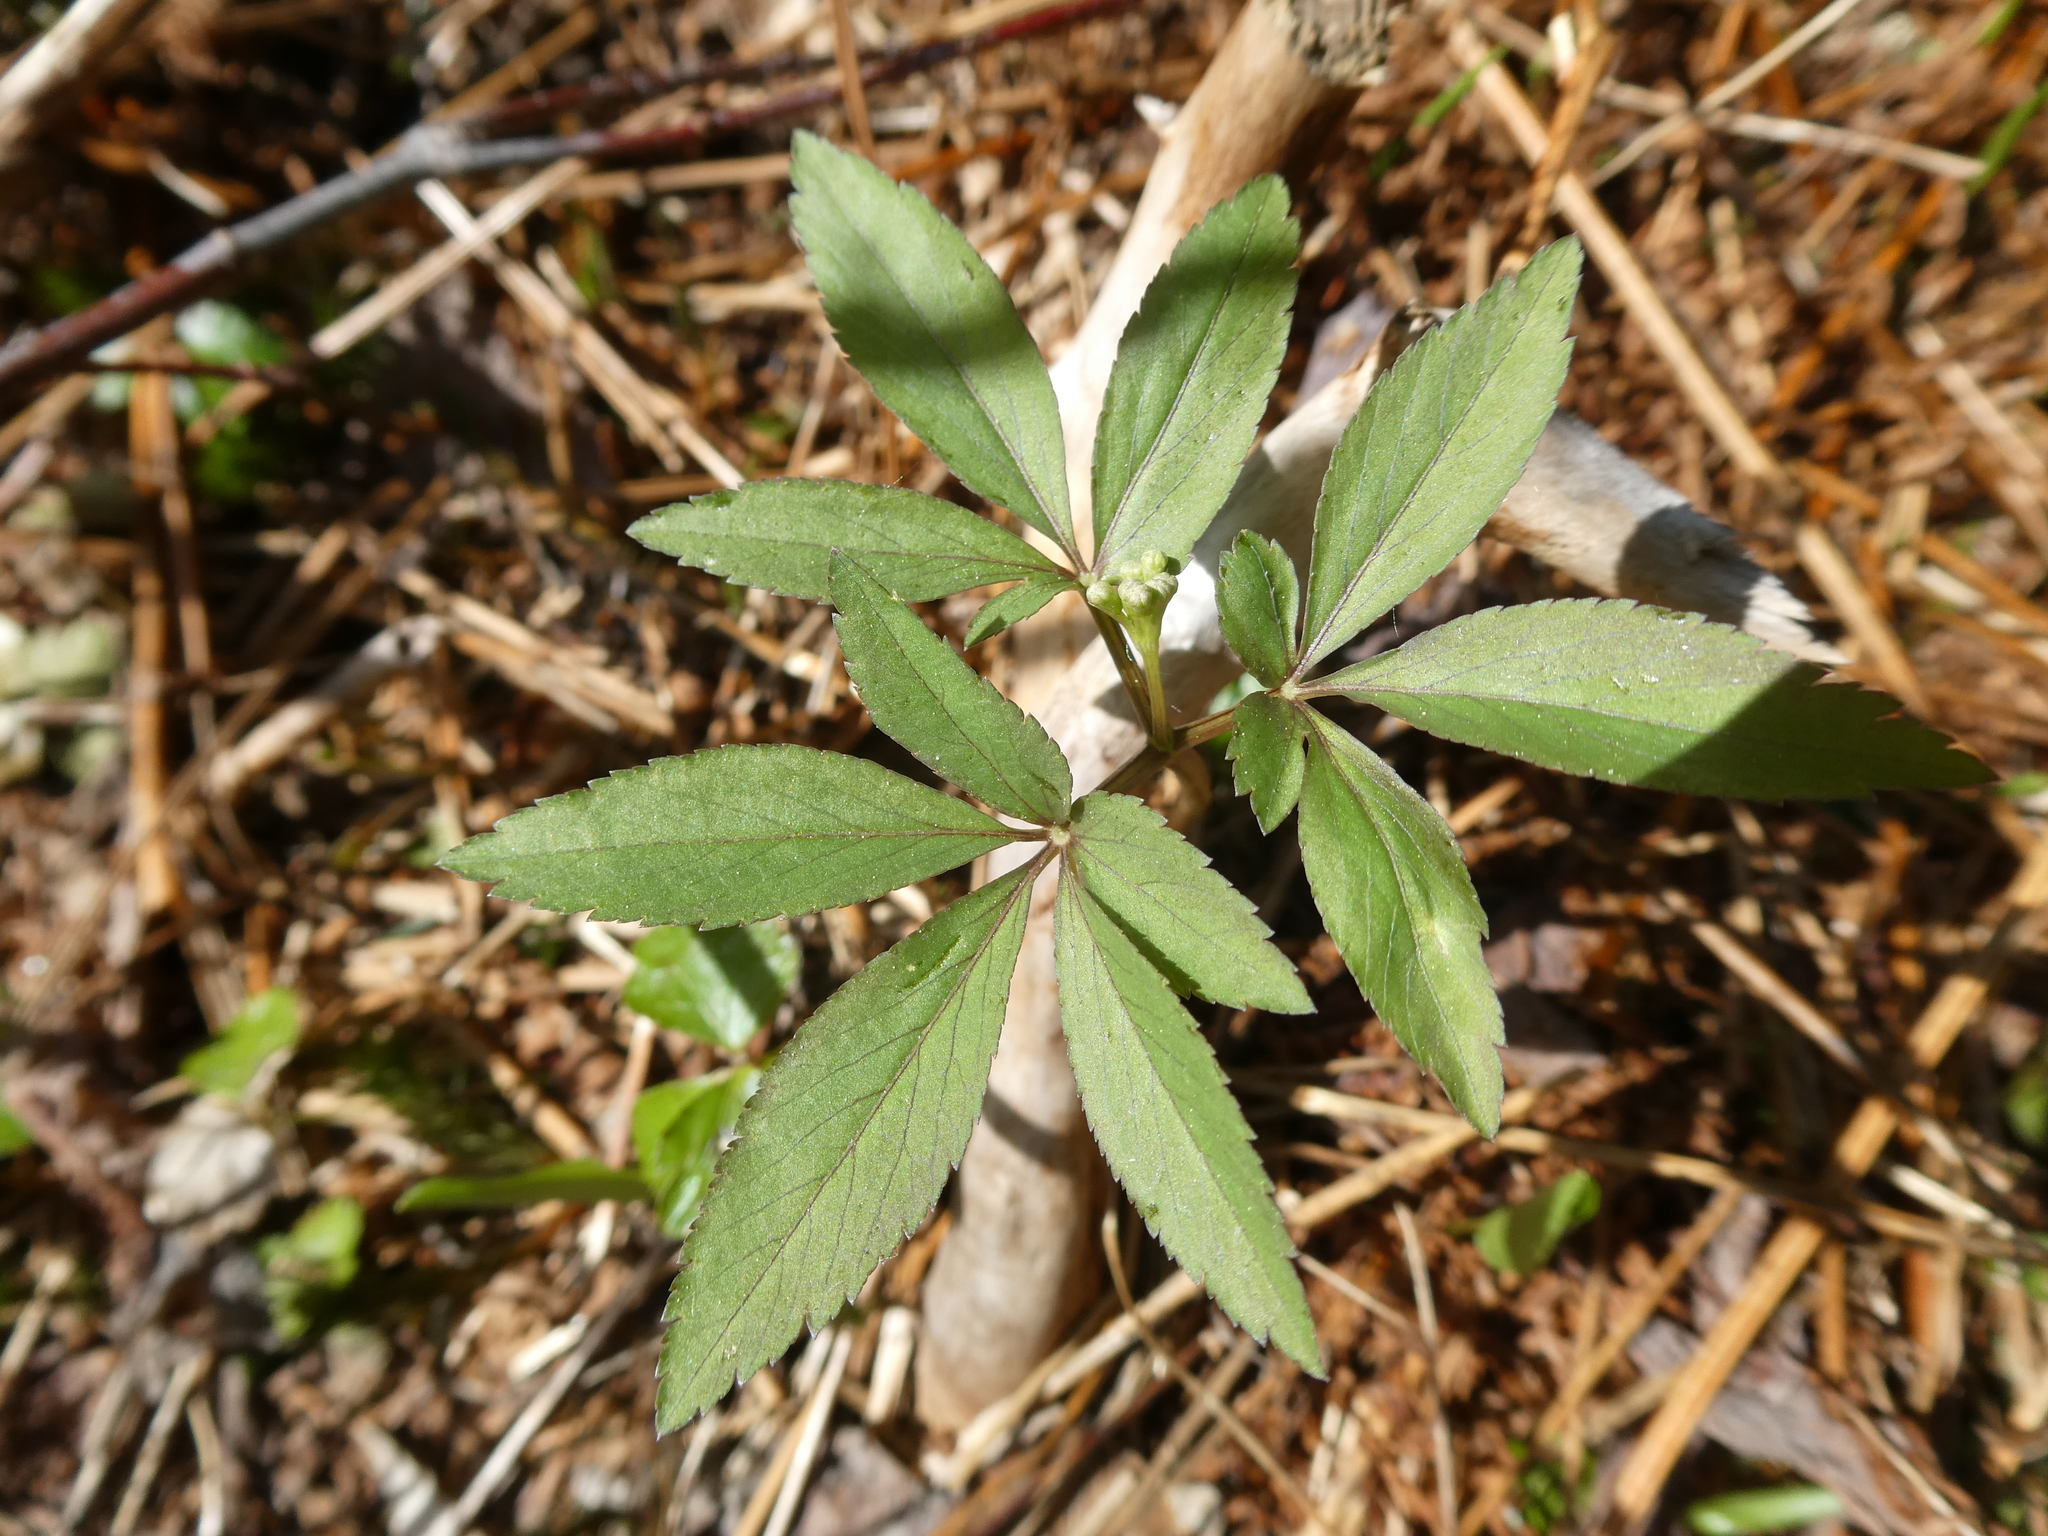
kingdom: Plantae
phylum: Tracheophyta
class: Magnoliopsida
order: Apiales
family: Araliaceae
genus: Panax
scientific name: Panax trifolius
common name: Dwarf ginseng
